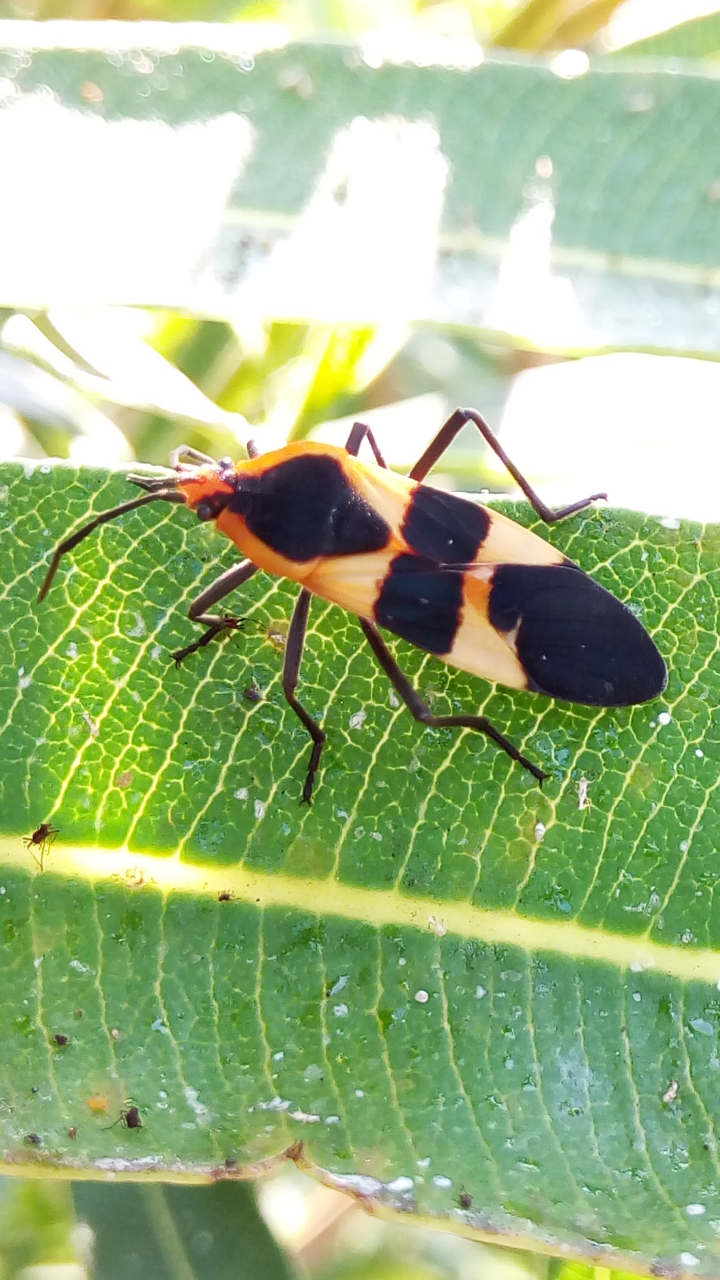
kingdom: Animalia
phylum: Arthropoda
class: Insecta
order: Hemiptera
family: Lygaeidae
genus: Oncopeltus
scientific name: Oncopeltus fasciatus
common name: Large milkweed bug
